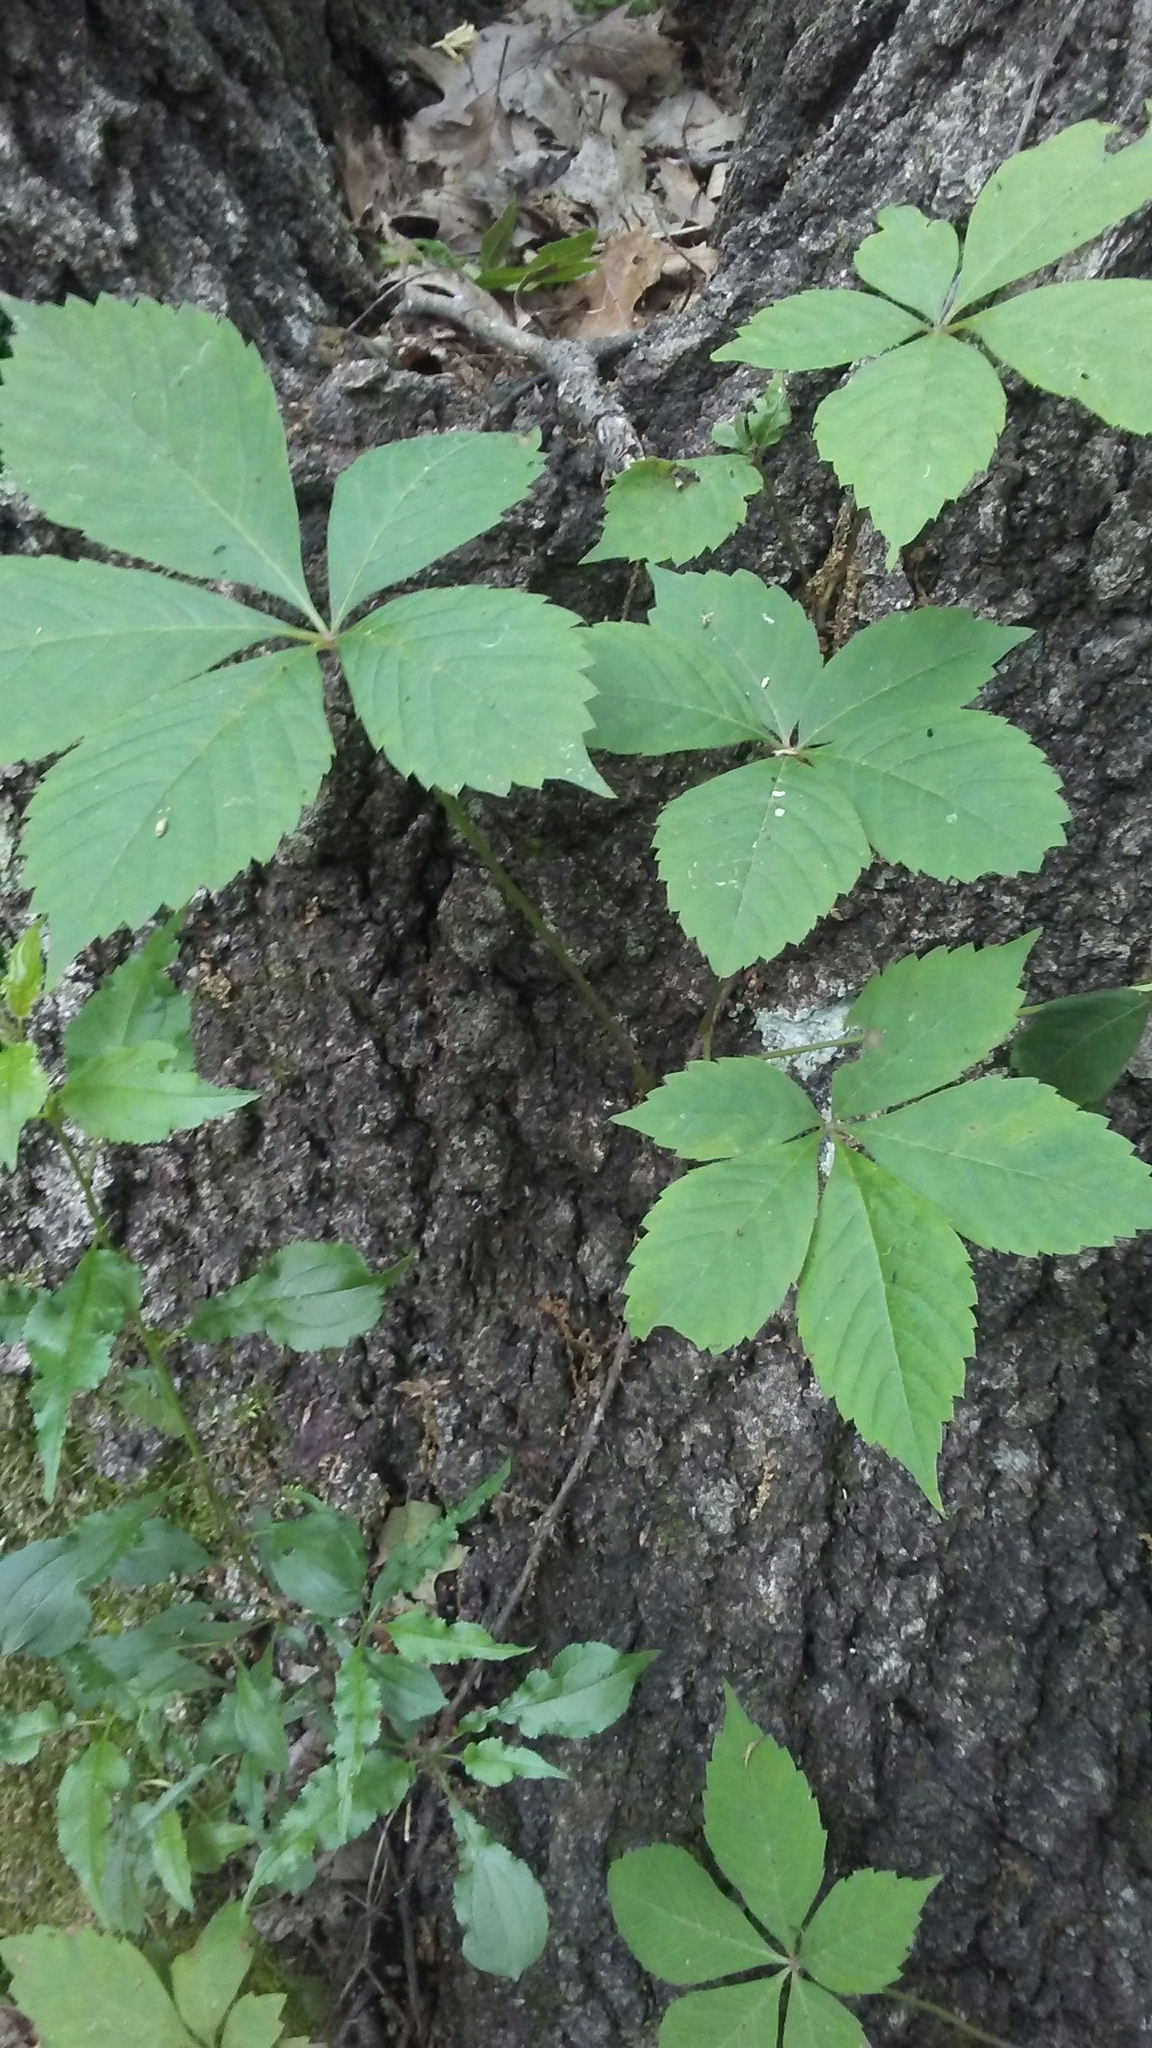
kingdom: Plantae
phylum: Tracheophyta
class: Magnoliopsida
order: Vitales
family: Vitaceae
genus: Parthenocissus
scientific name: Parthenocissus quinquefolia
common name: Virginia-creeper
